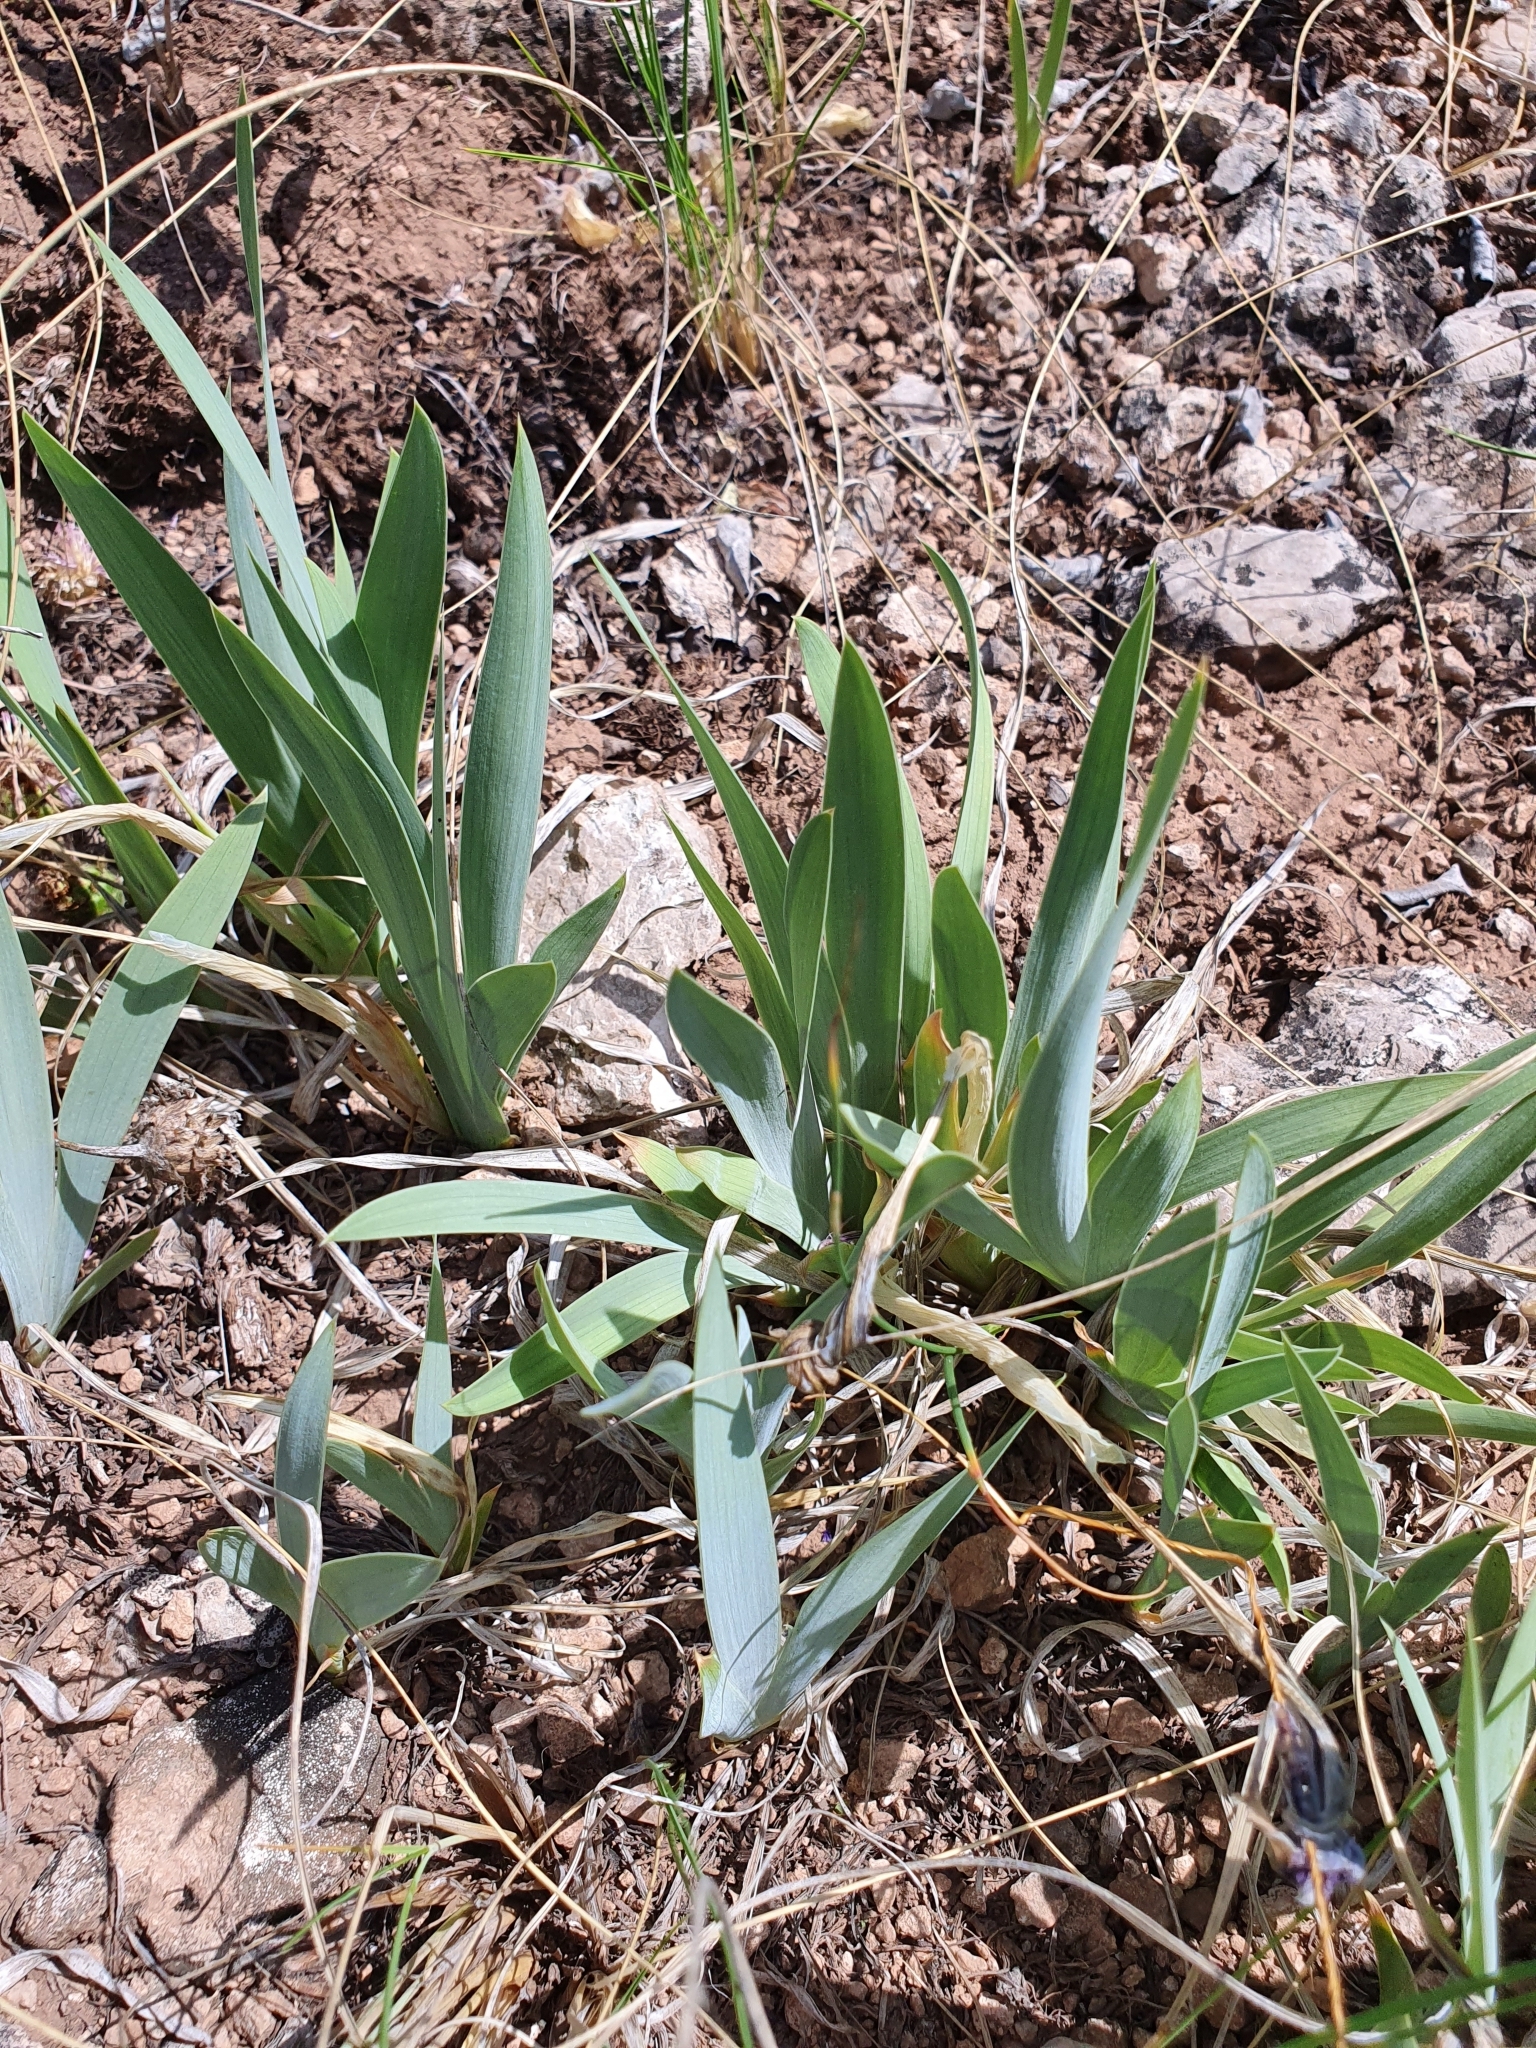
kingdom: Plantae
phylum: Tracheophyta
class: Liliopsida
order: Asparagales
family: Iridaceae
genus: Iris
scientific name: Iris pumila
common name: Dwarf iris
